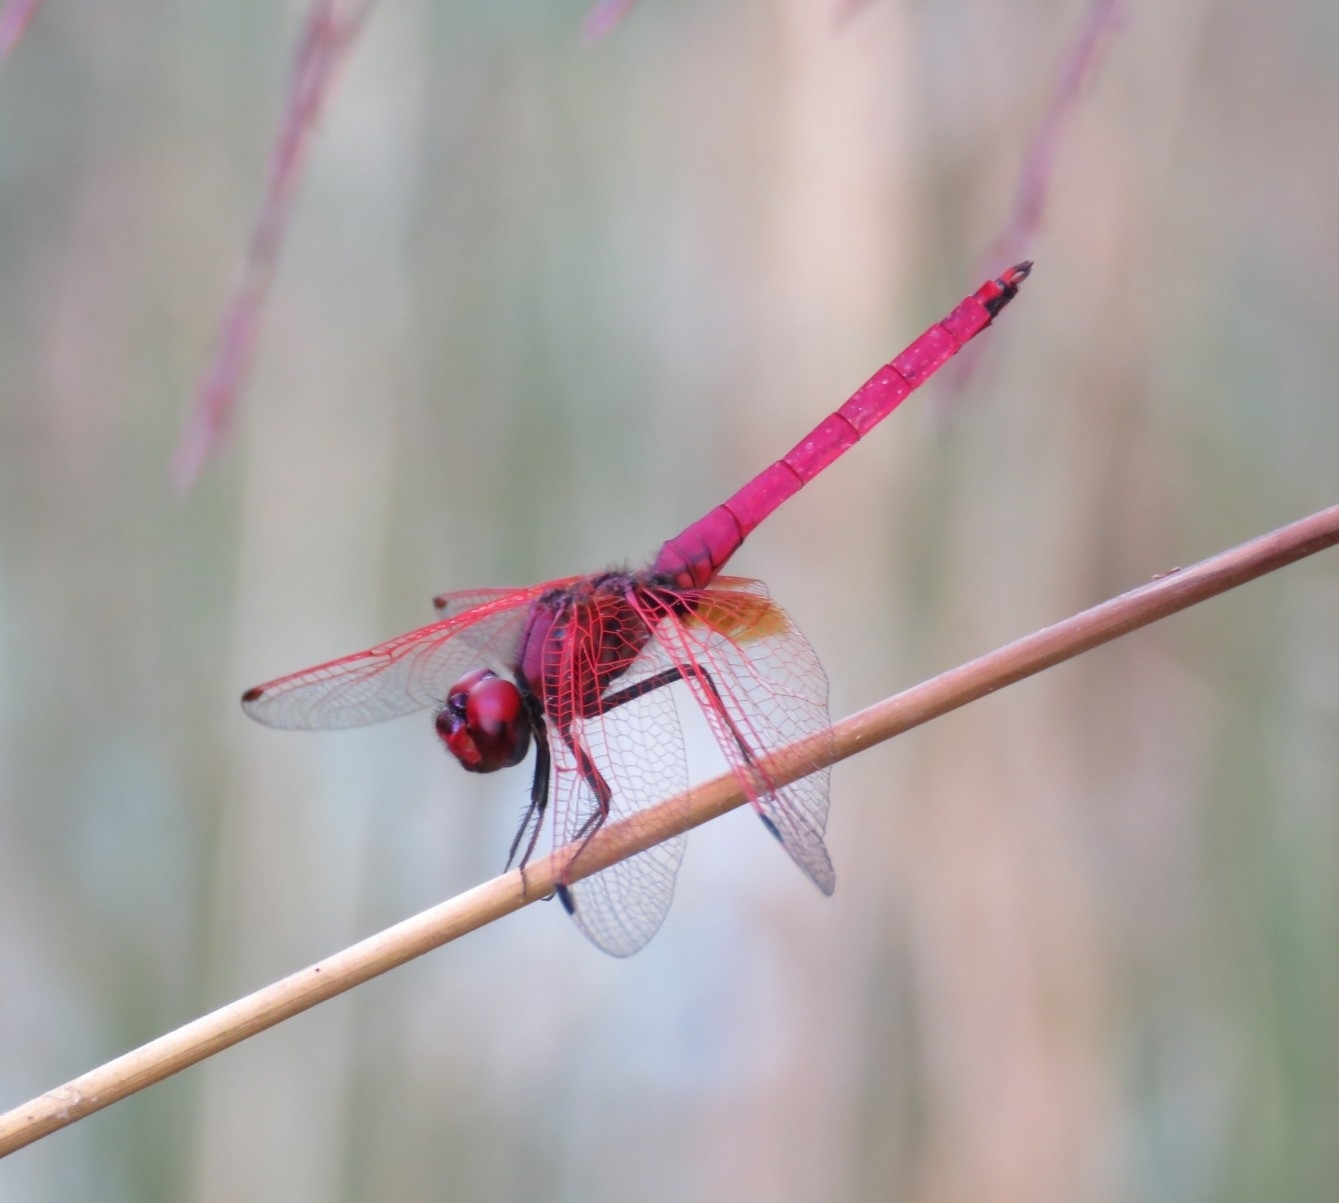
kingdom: Animalia
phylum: Arthropoda
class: Insecta
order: Odonata
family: Libellulidae
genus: Trithemis
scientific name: Trithemis aurora
